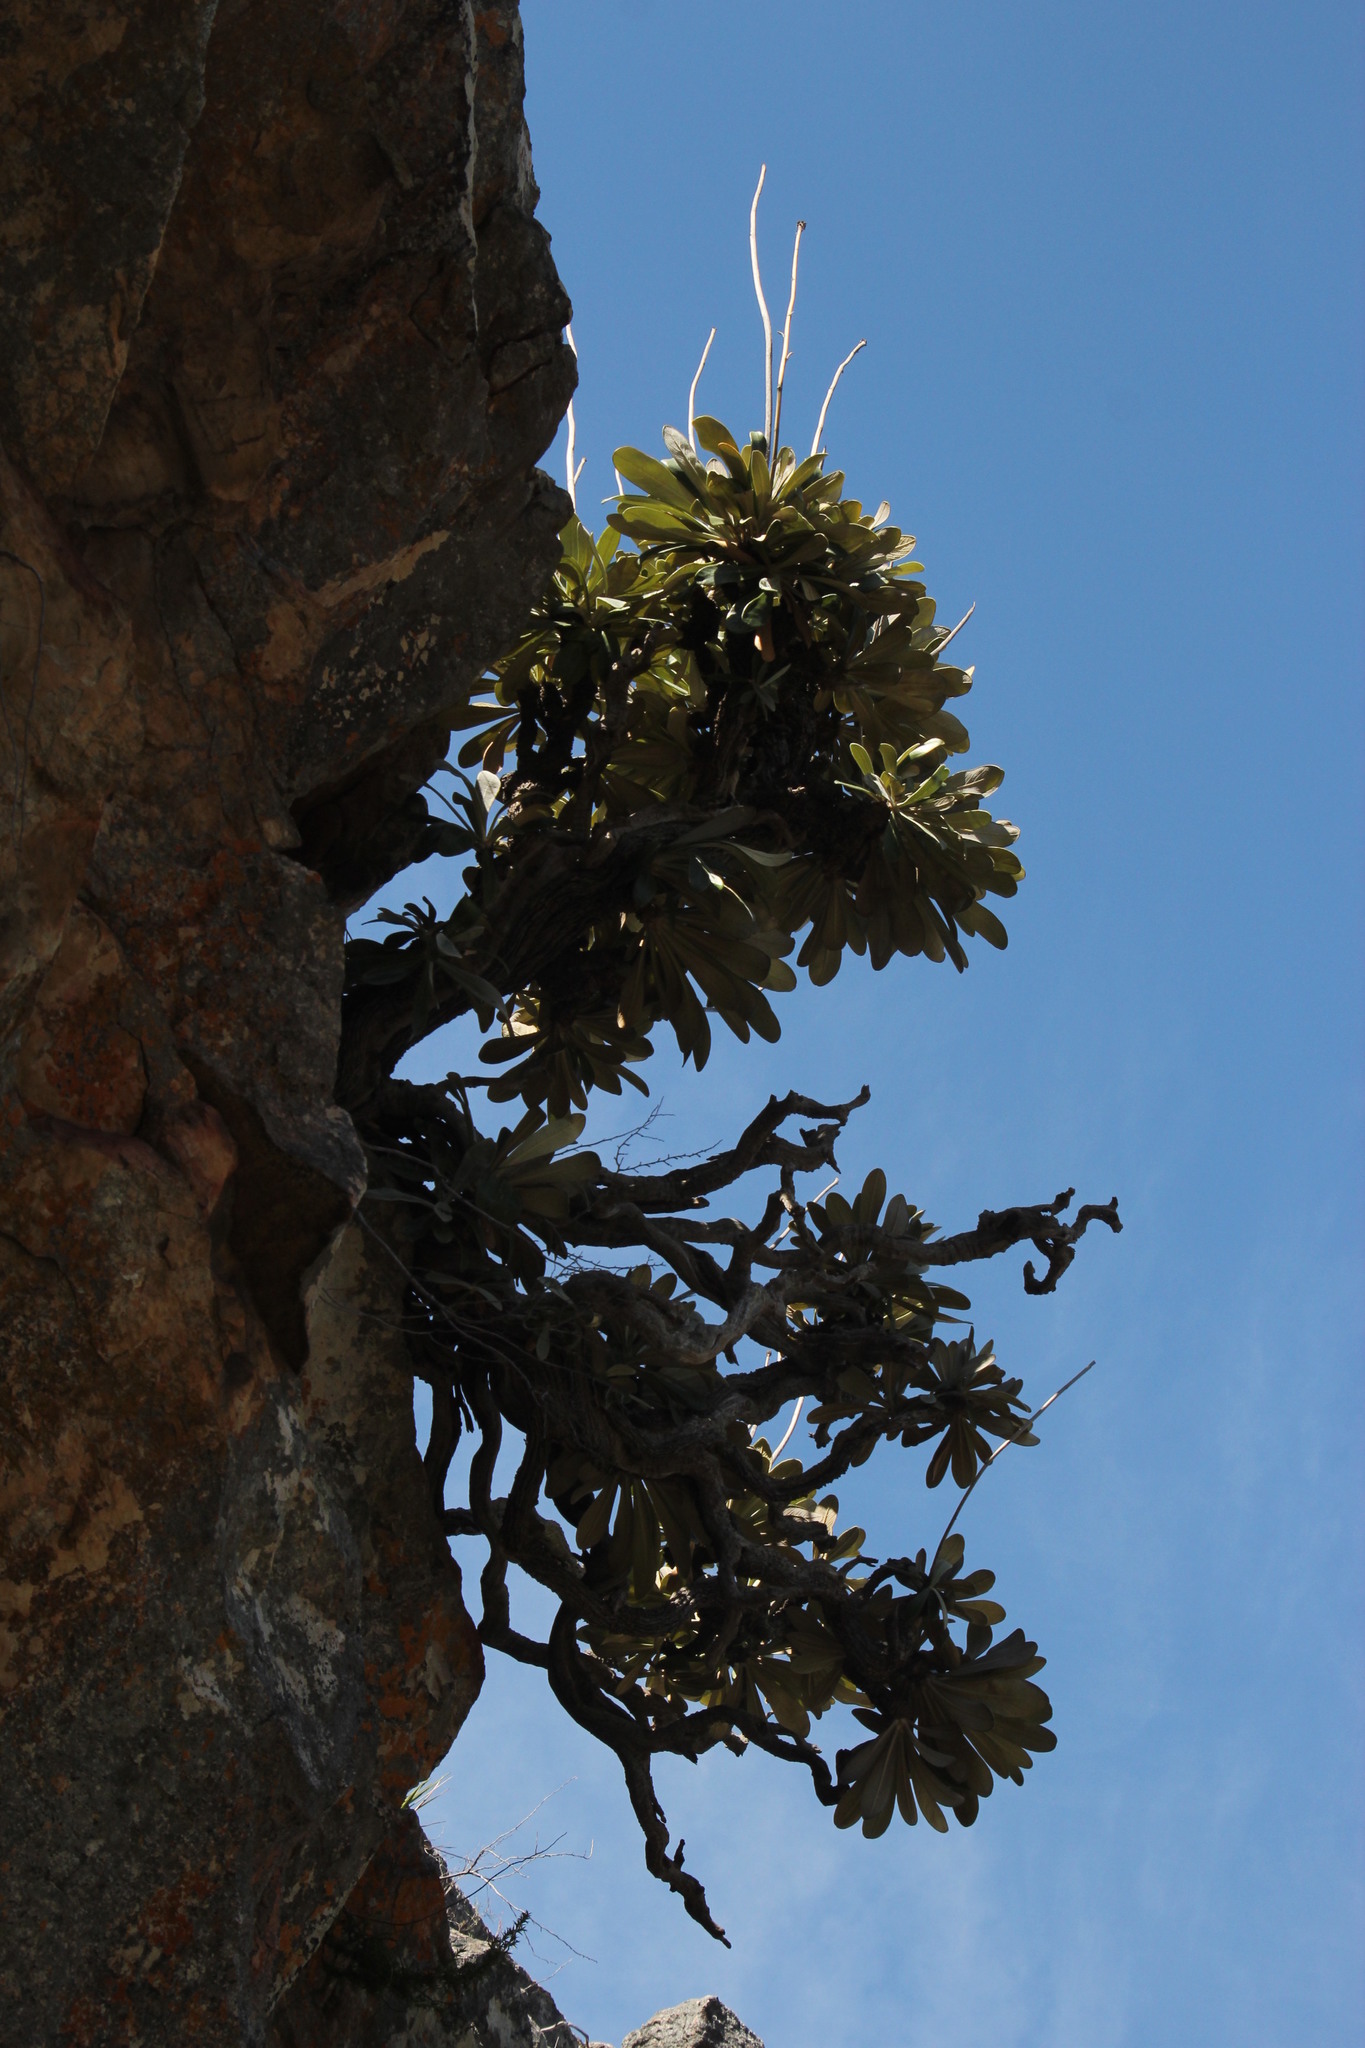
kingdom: Plantae
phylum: Tracheophyta
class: Magnoliopsida
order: Asterales
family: Asteraceae
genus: Oldenburgia
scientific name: Oldenburgia papionum
